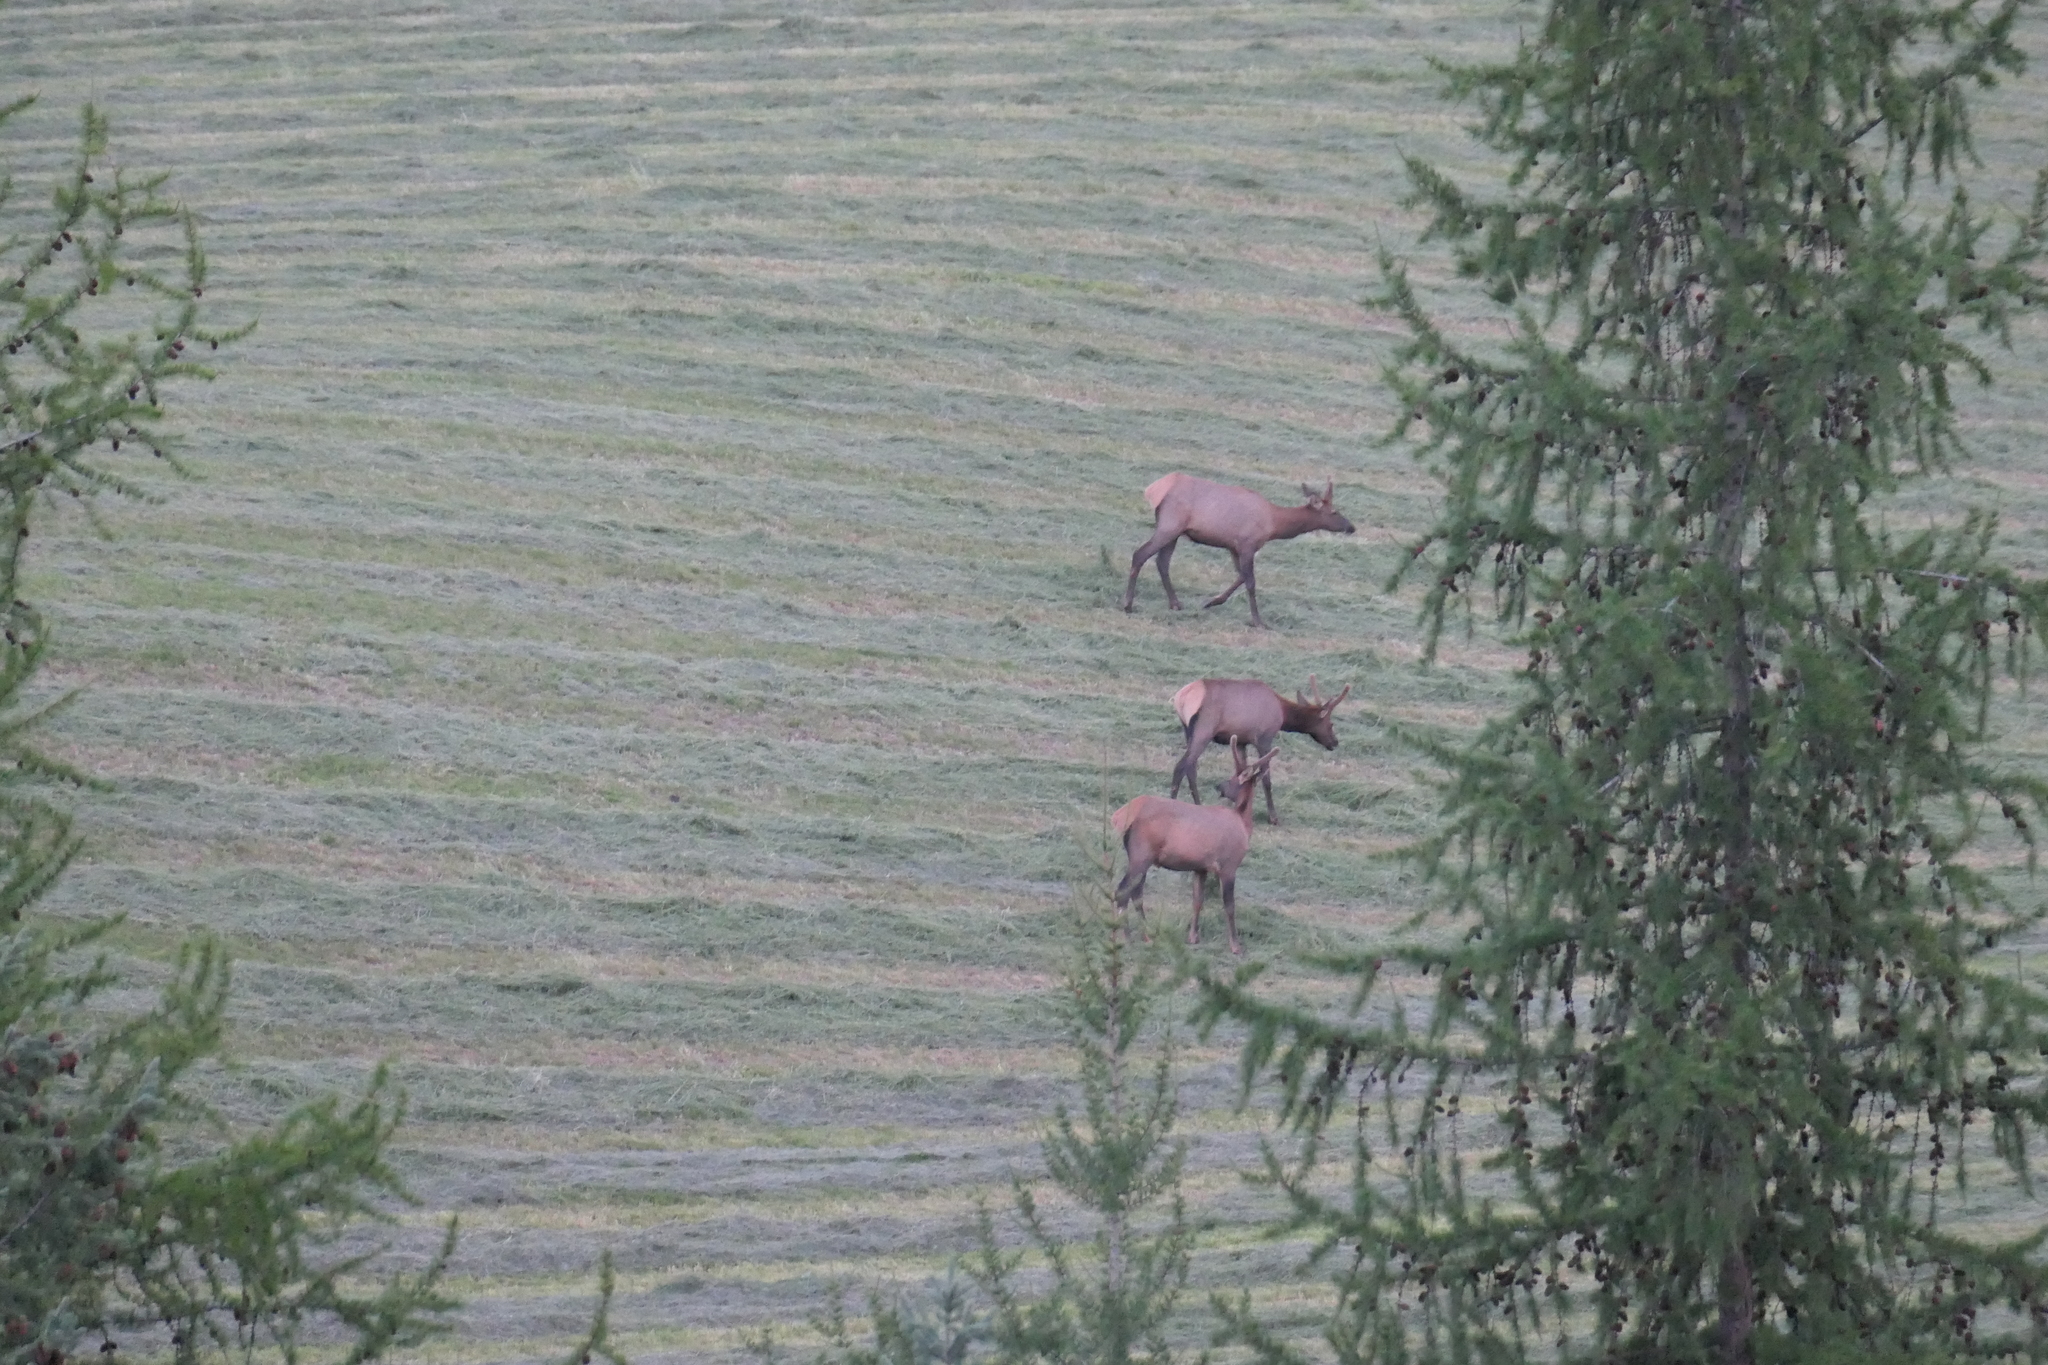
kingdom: Animalia
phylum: Chordata
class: Mammalia
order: Artiodactyla
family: Cervidae
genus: Cervus
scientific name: Cervus elaphus
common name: Red deer
